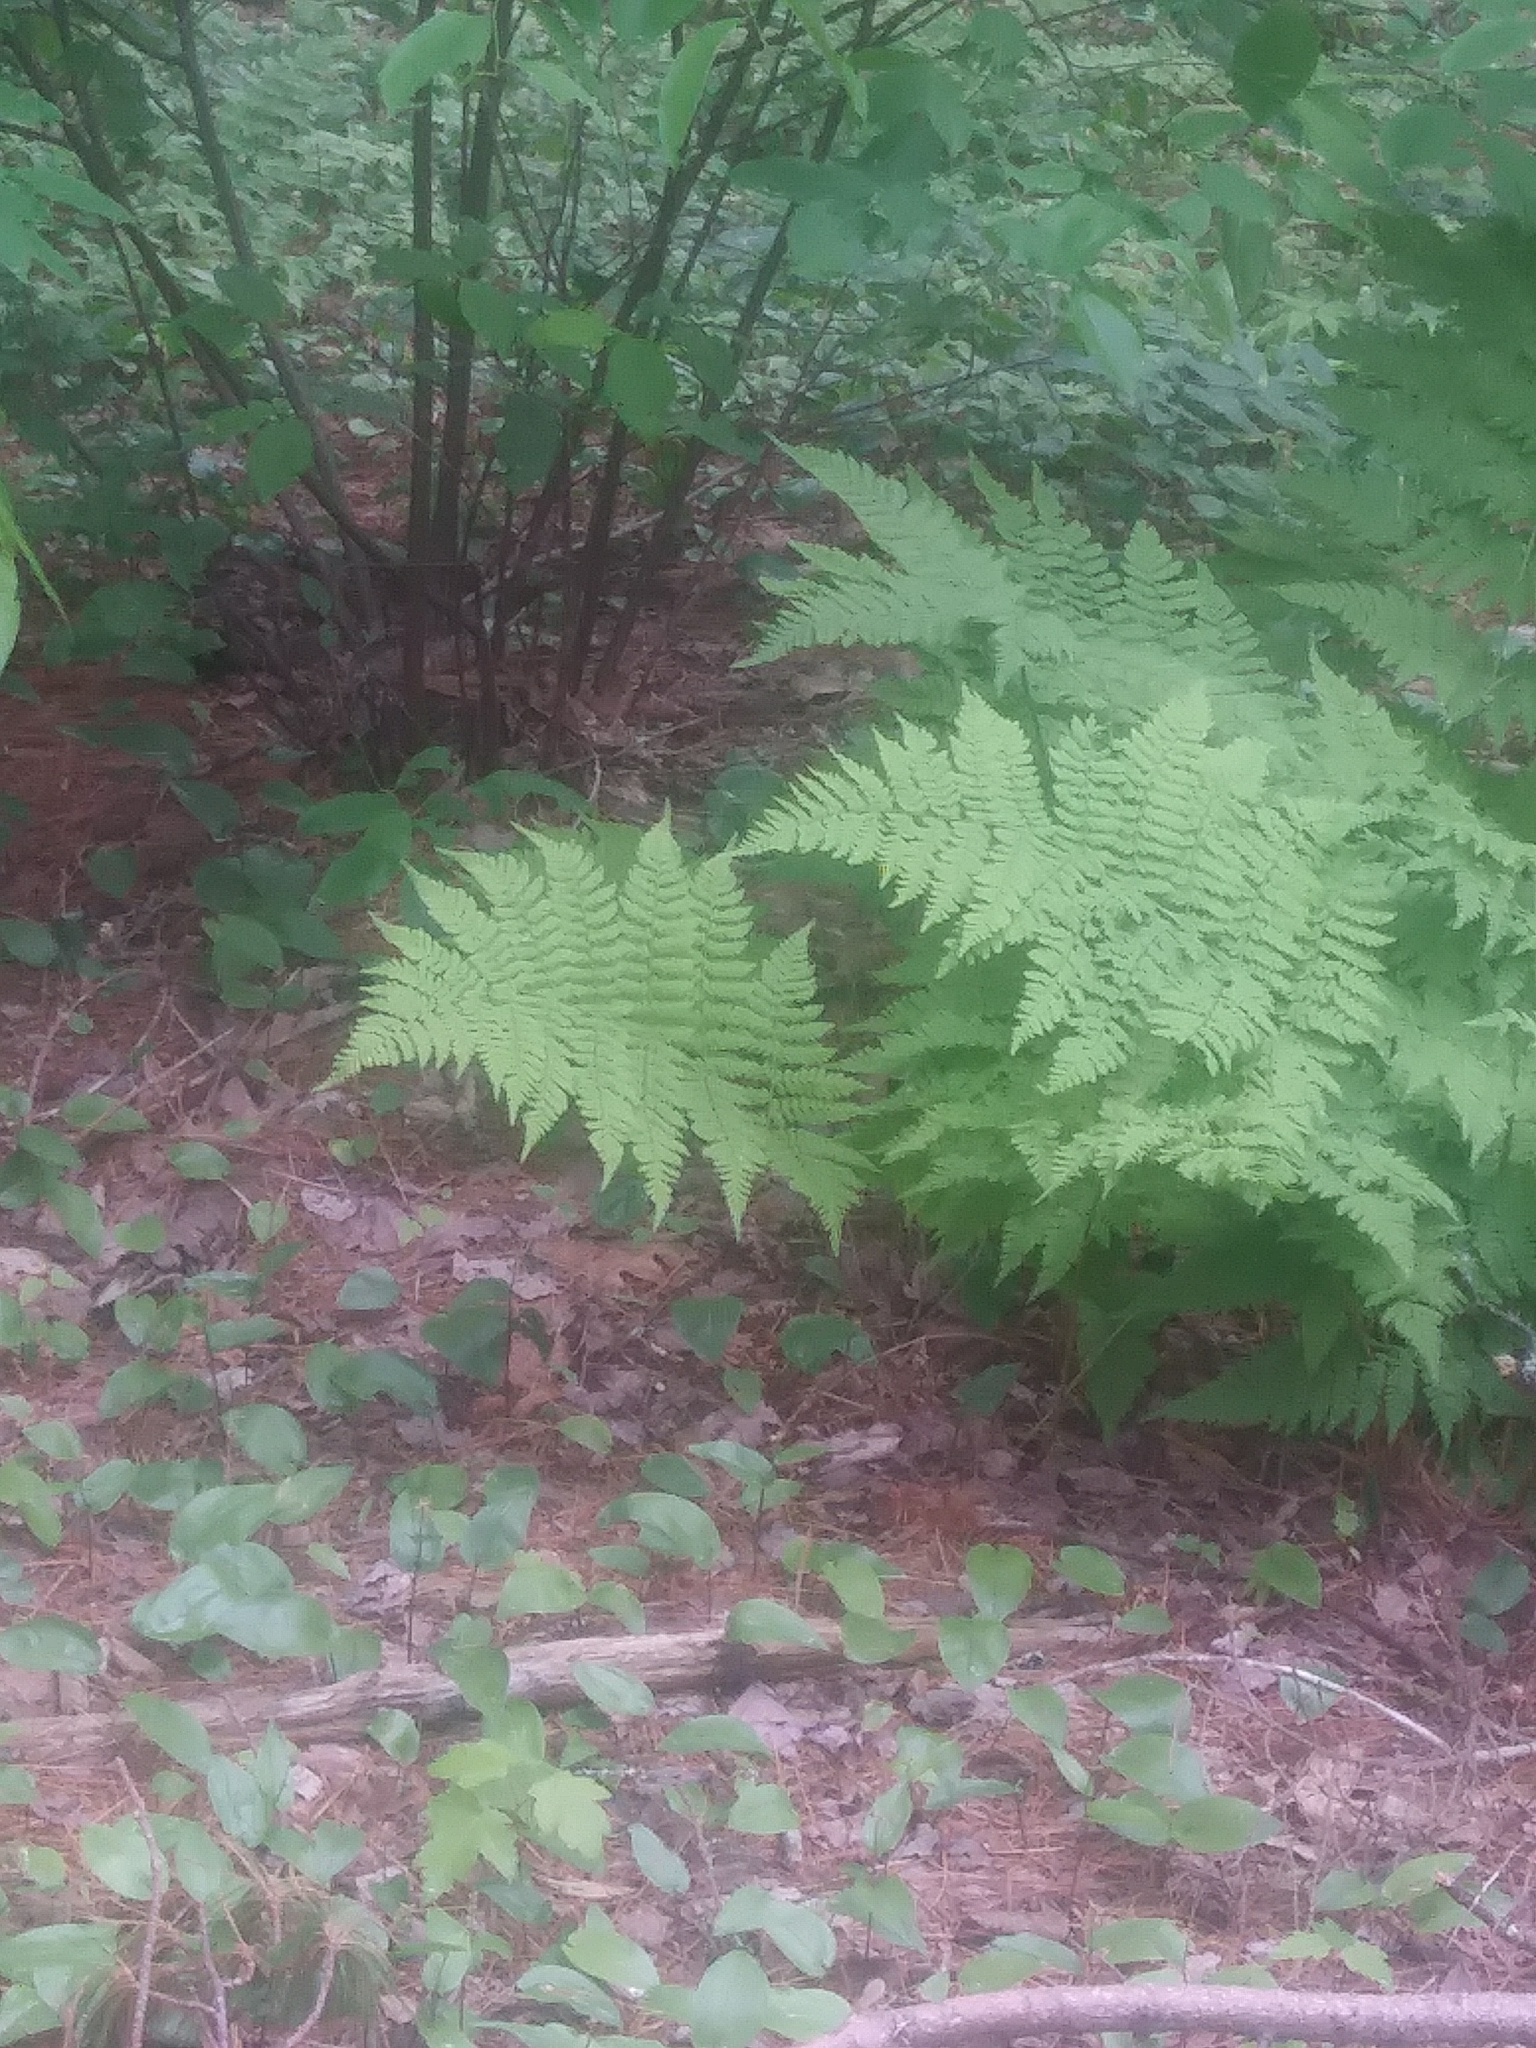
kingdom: Plantae
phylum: Tracheophyta
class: Polypodiopsida
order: Polypodiales
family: Dryopteridaceae
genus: Dryopteris
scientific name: Dryopteris campyloptera
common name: Mountain wood fern
